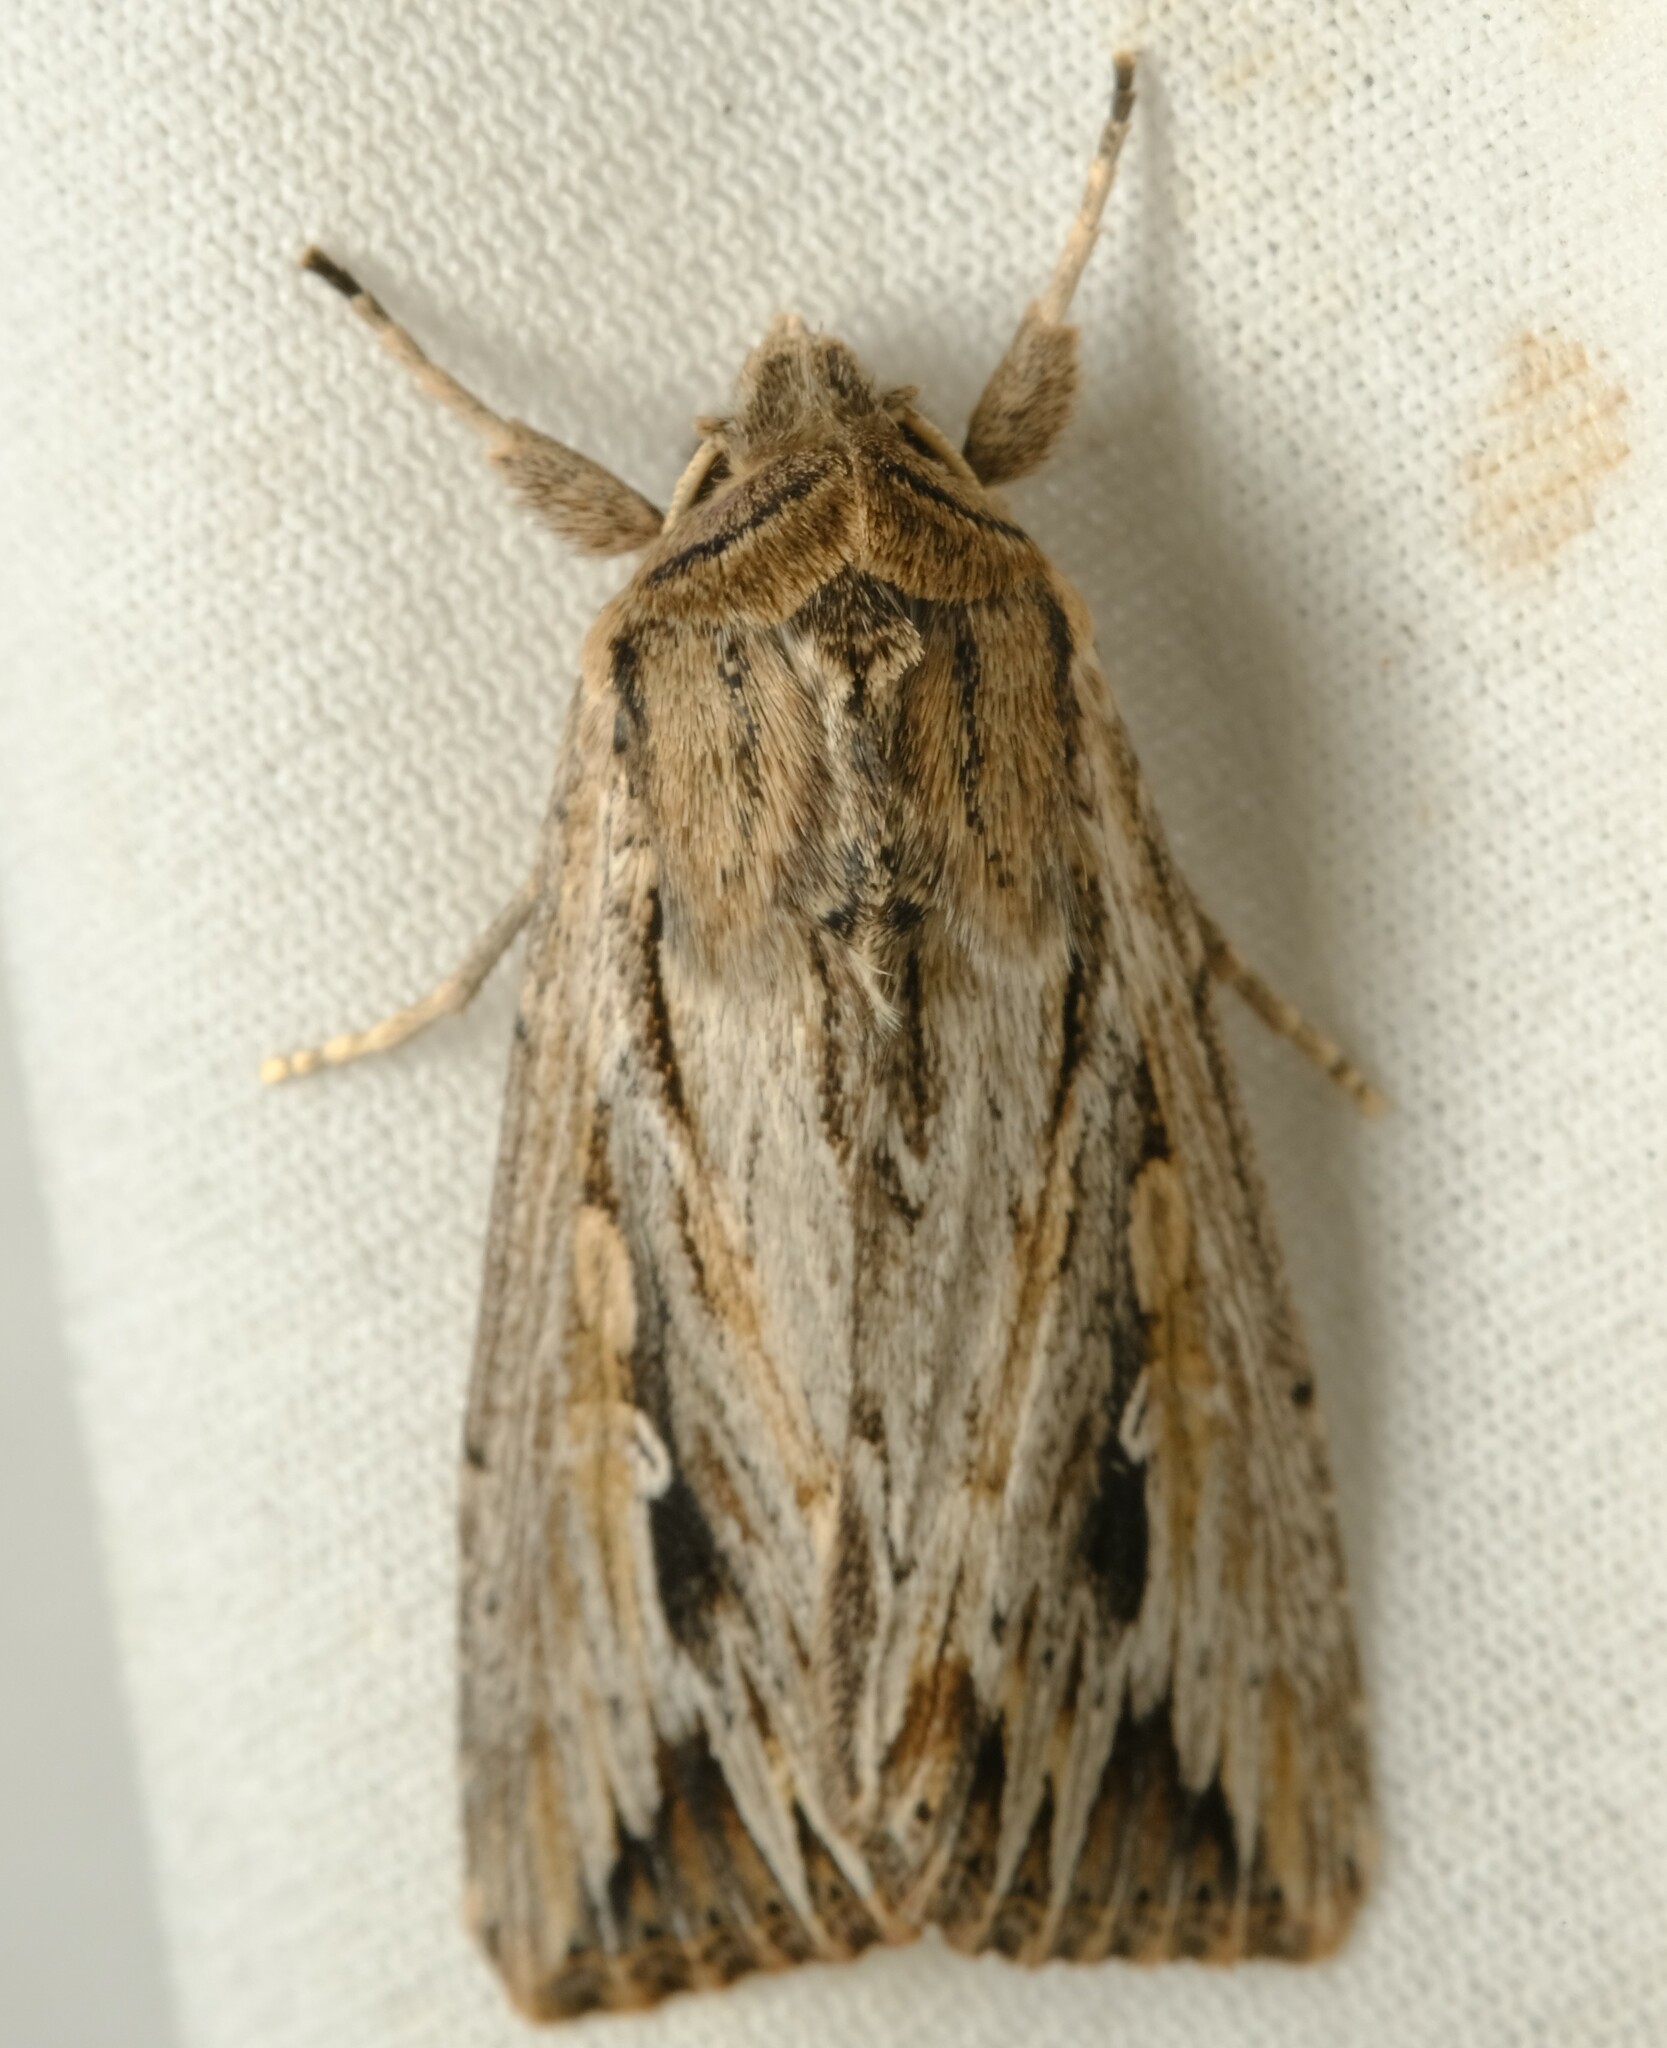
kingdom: Animalia
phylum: Arthropoda
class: Insecta
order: Lepidoptera
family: Noctuidae
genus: Persectania
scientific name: Persectania dyscrita
